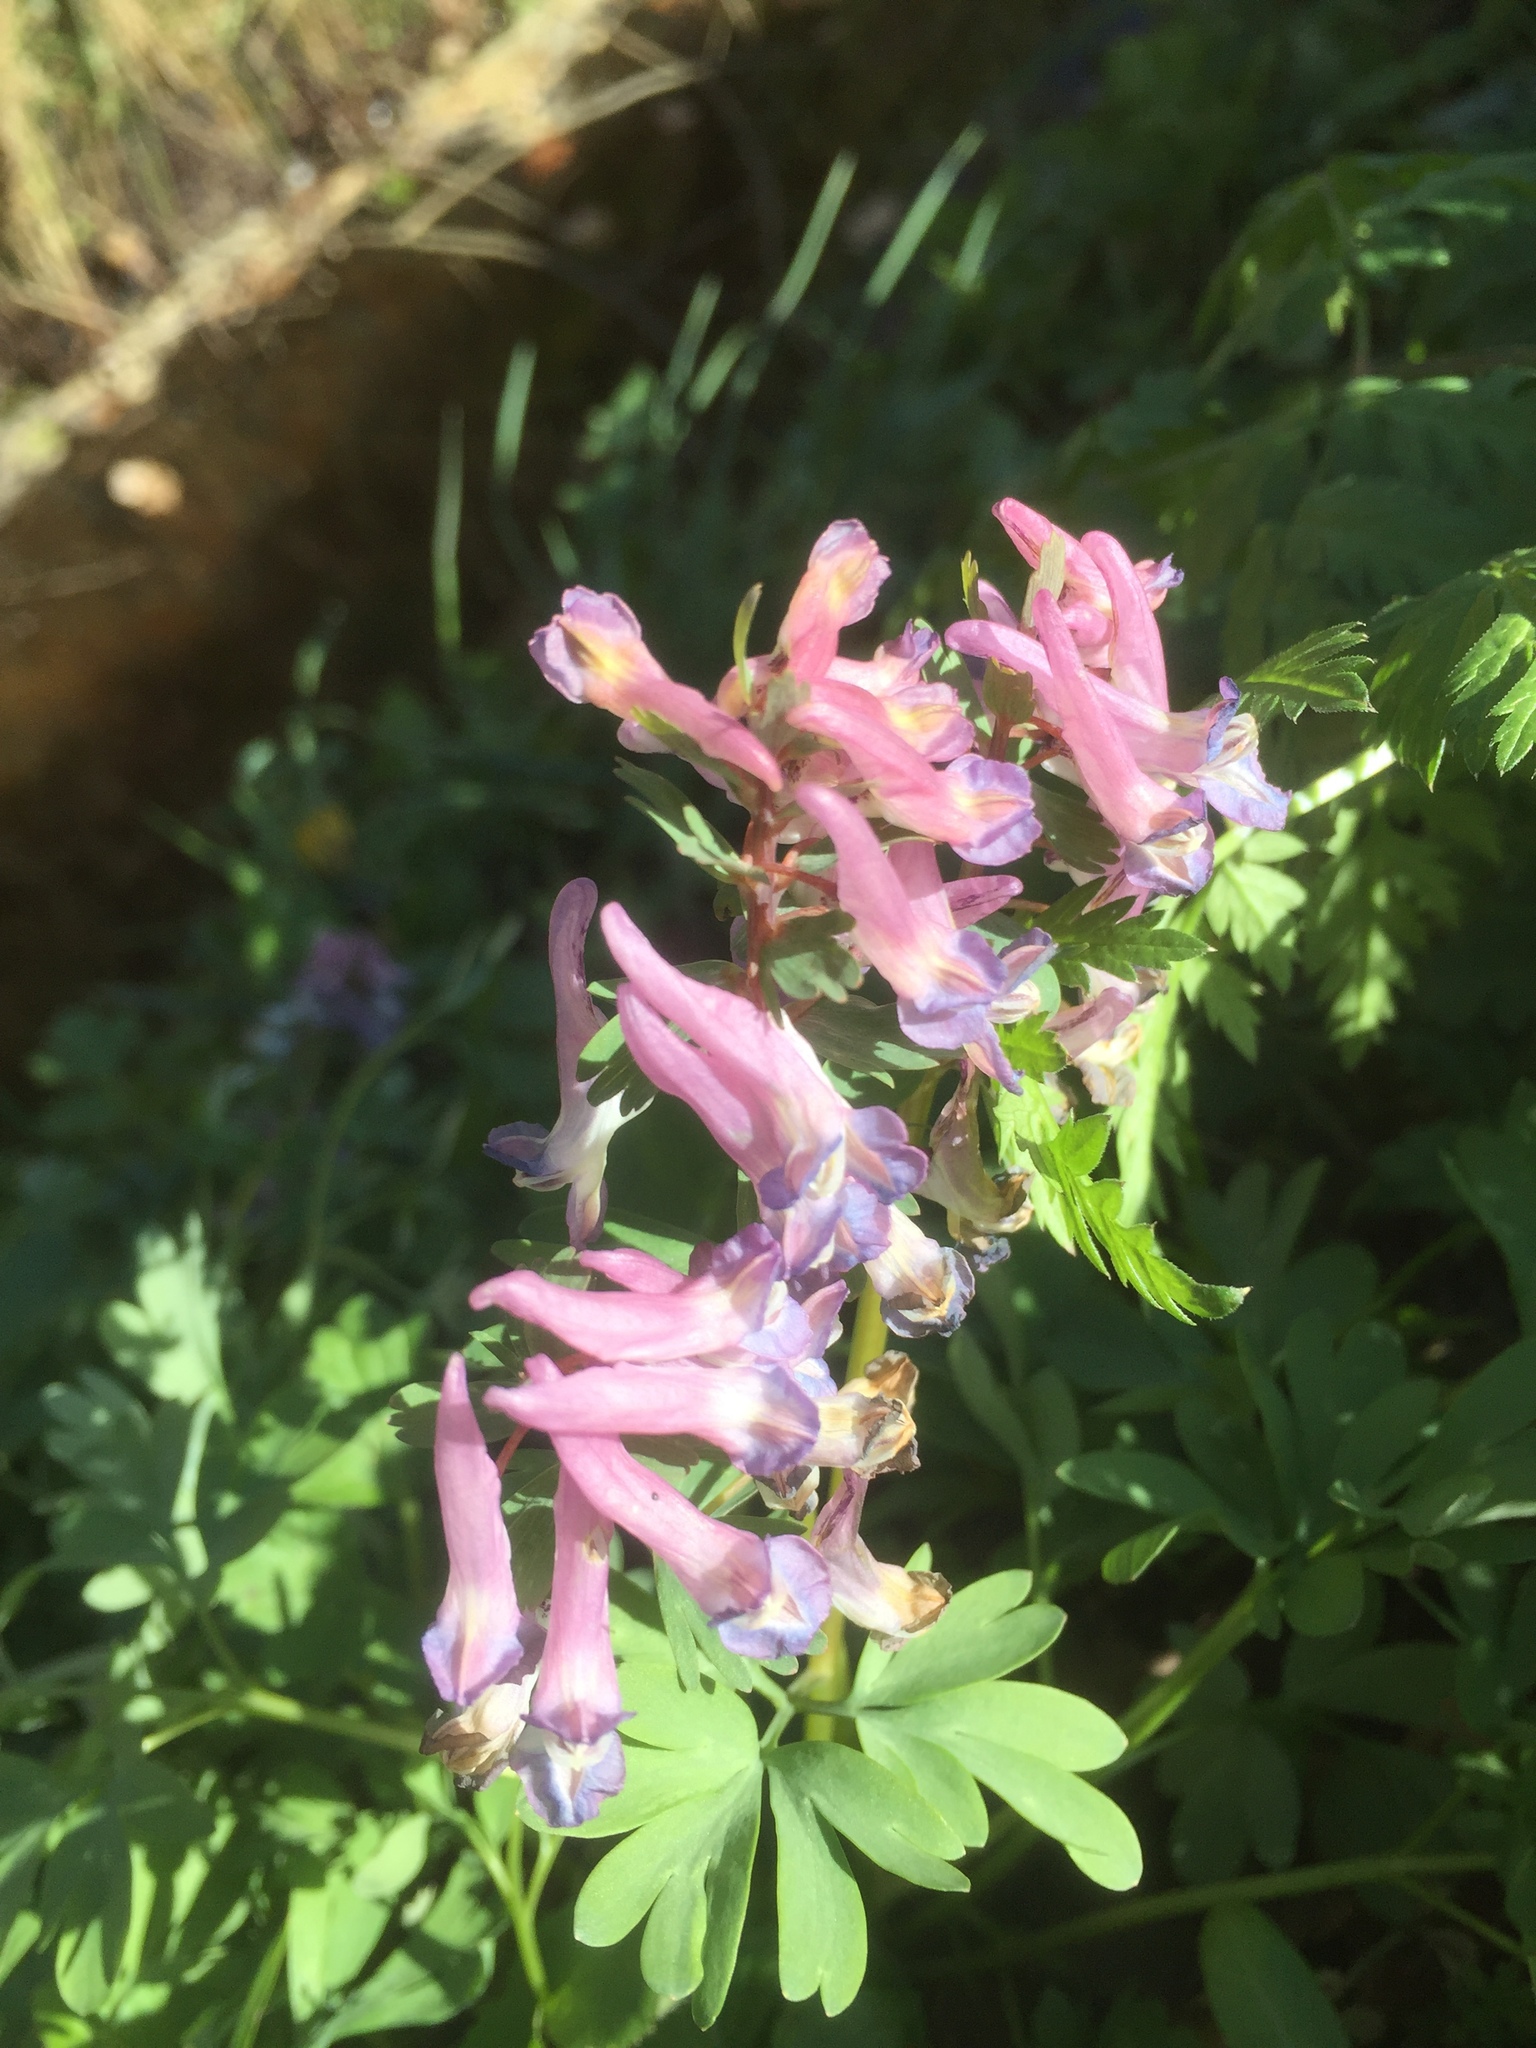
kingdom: Plantae
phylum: Tracheophyta
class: Magnoliopsida
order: Ranunculales
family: Papaveraceae
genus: Corydalis
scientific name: Corydalis solida
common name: Bird-in-a-bush
